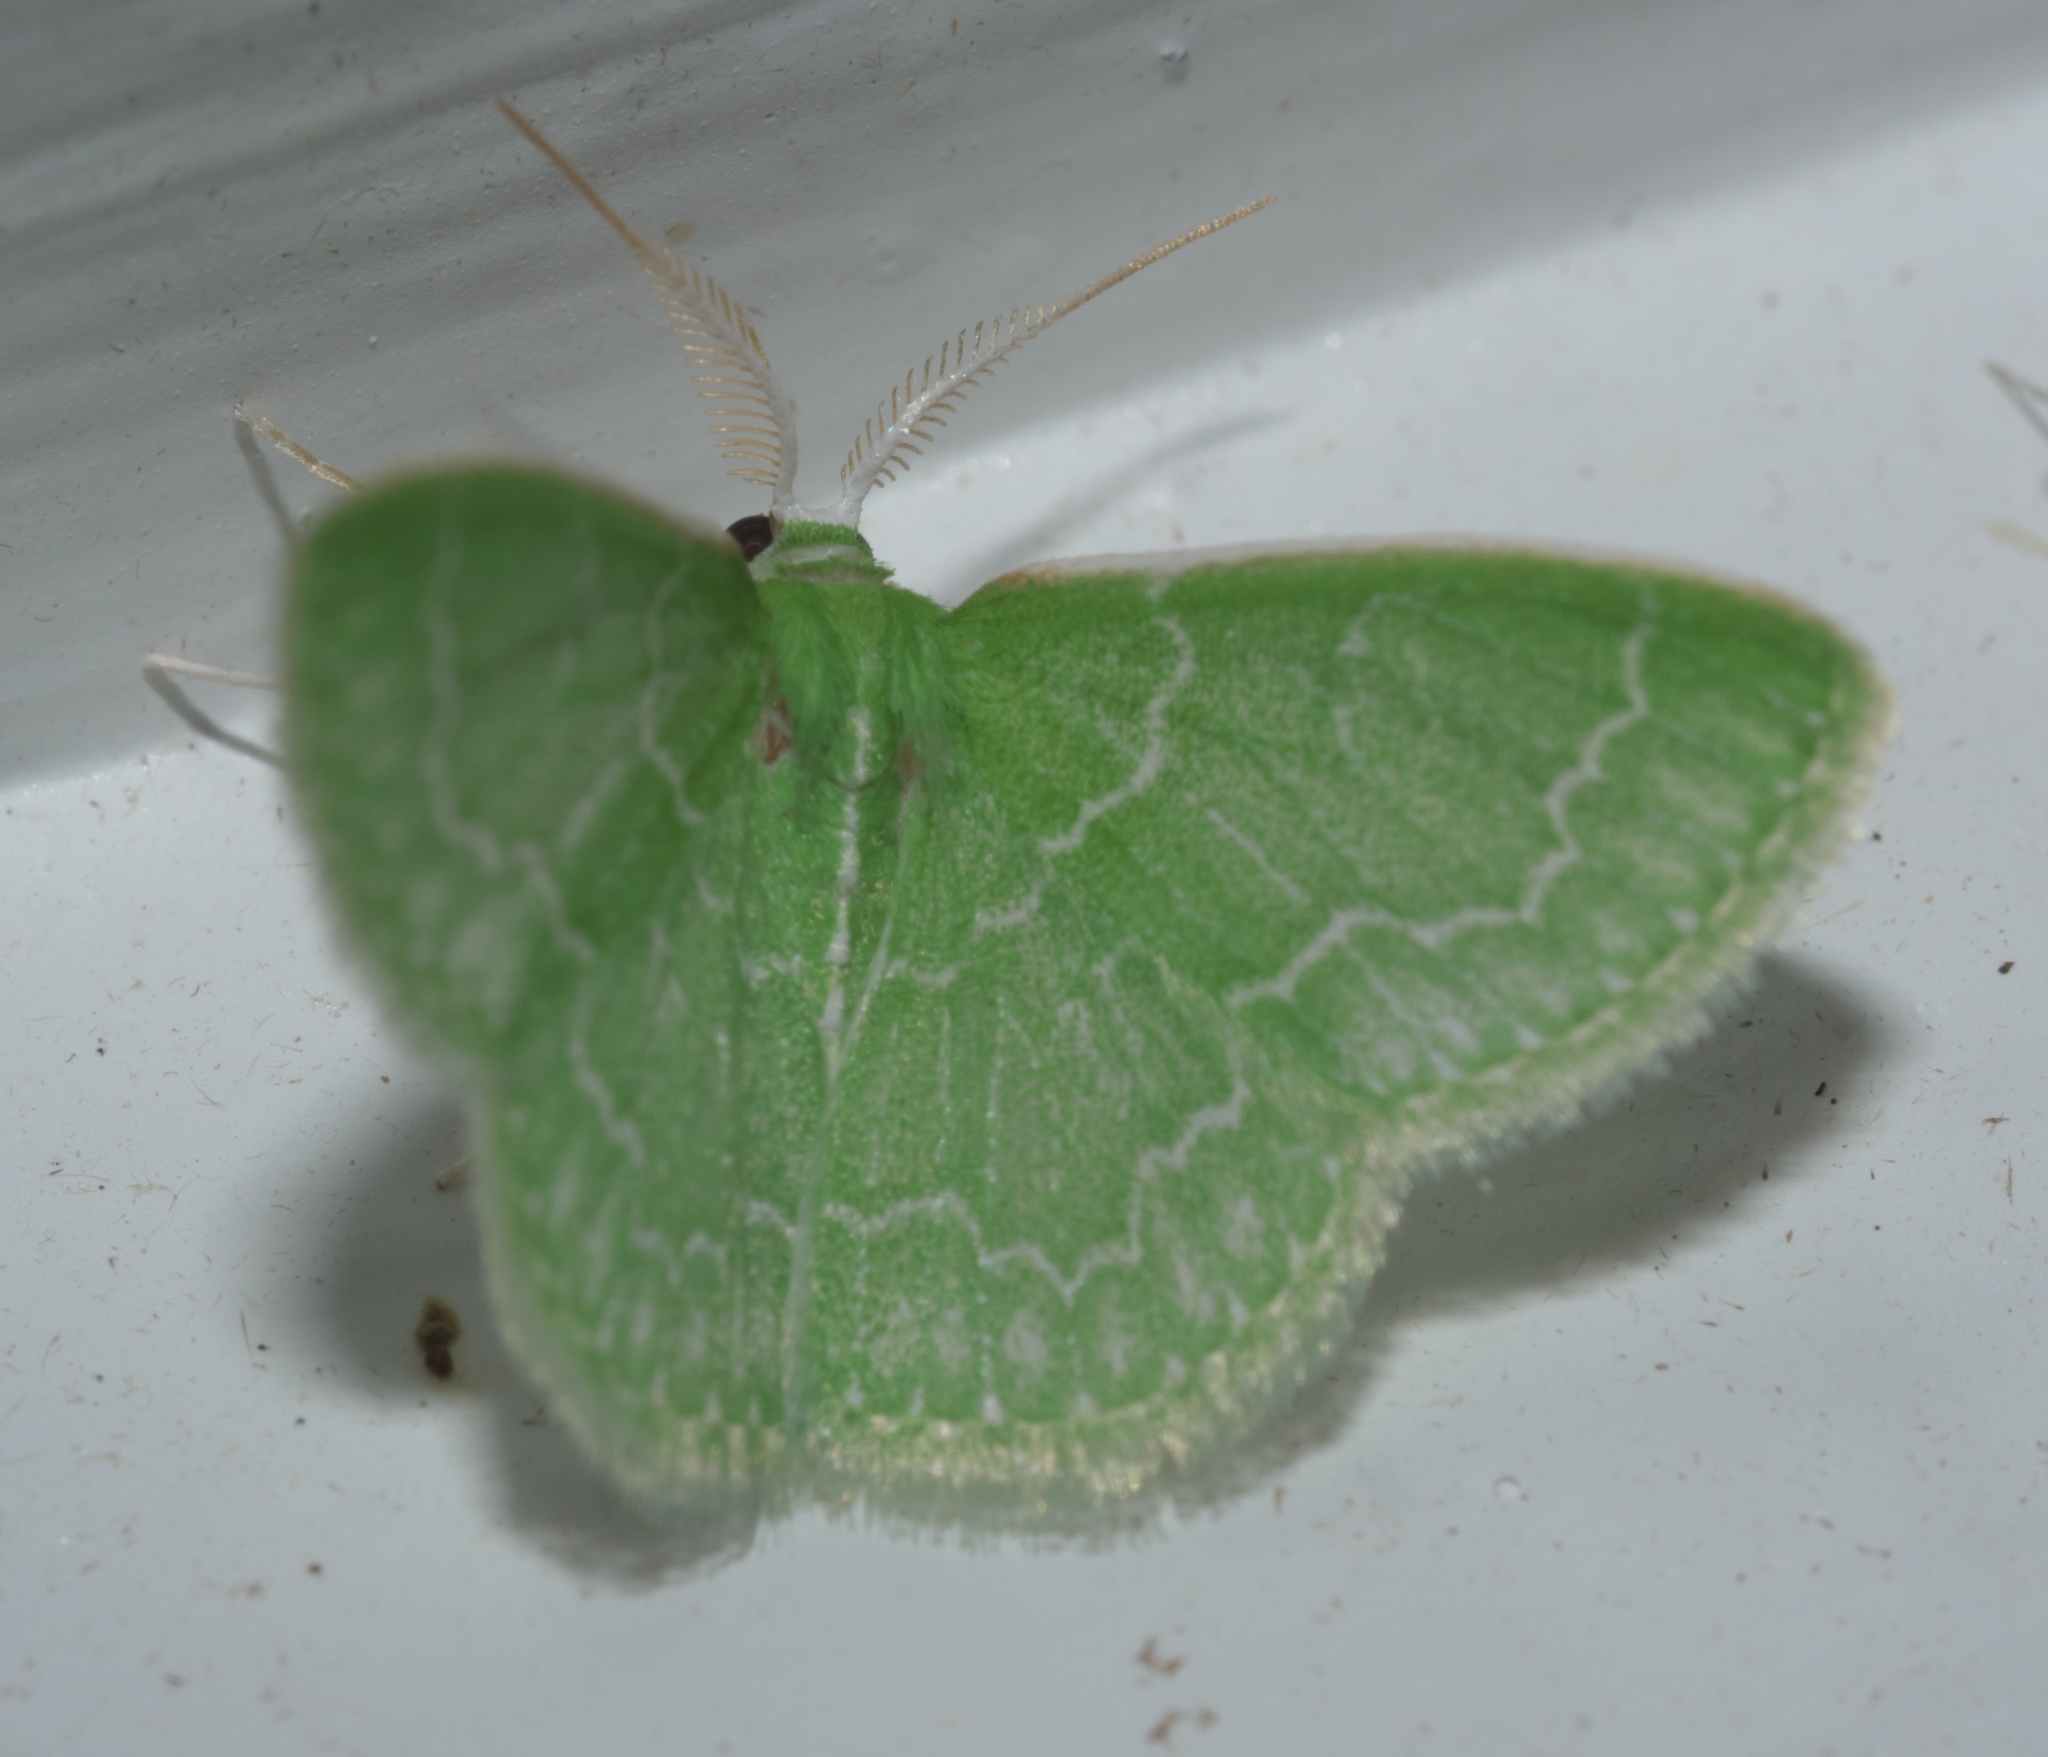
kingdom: Animalia
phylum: Arthropoda
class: Insecta
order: Lepidoptera
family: Geometridae
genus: Synchlora
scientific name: Synchlora frondaria
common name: Southern emerald
